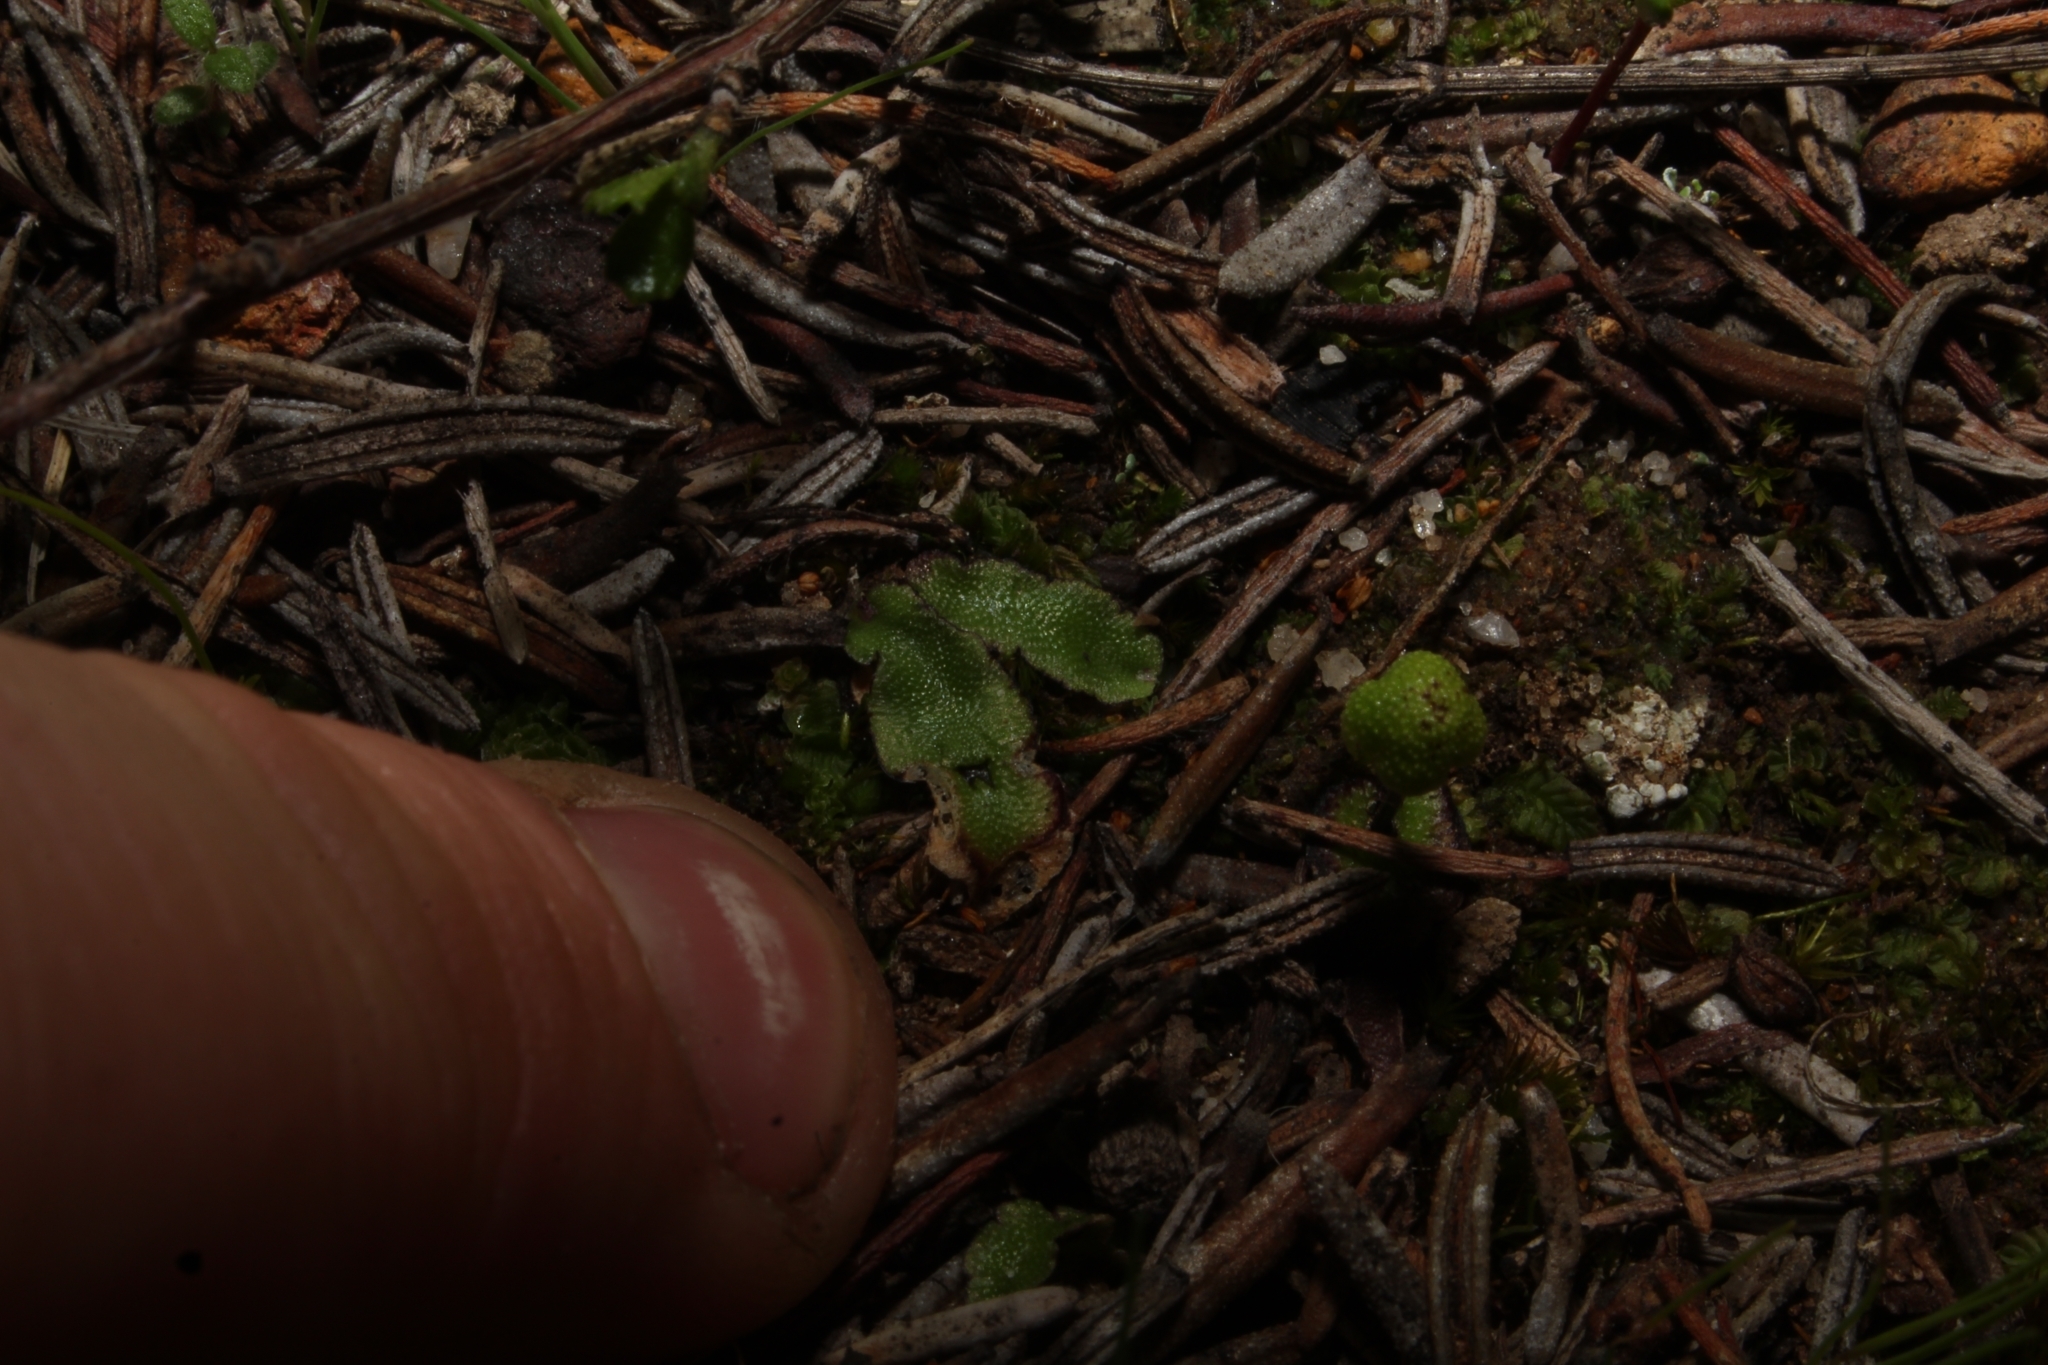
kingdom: Plantae
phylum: Marchantiophyta
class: Marchantiopsida
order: Marchantiales
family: Aytoniaceae
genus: Asterella
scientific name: Asterella drummondii
